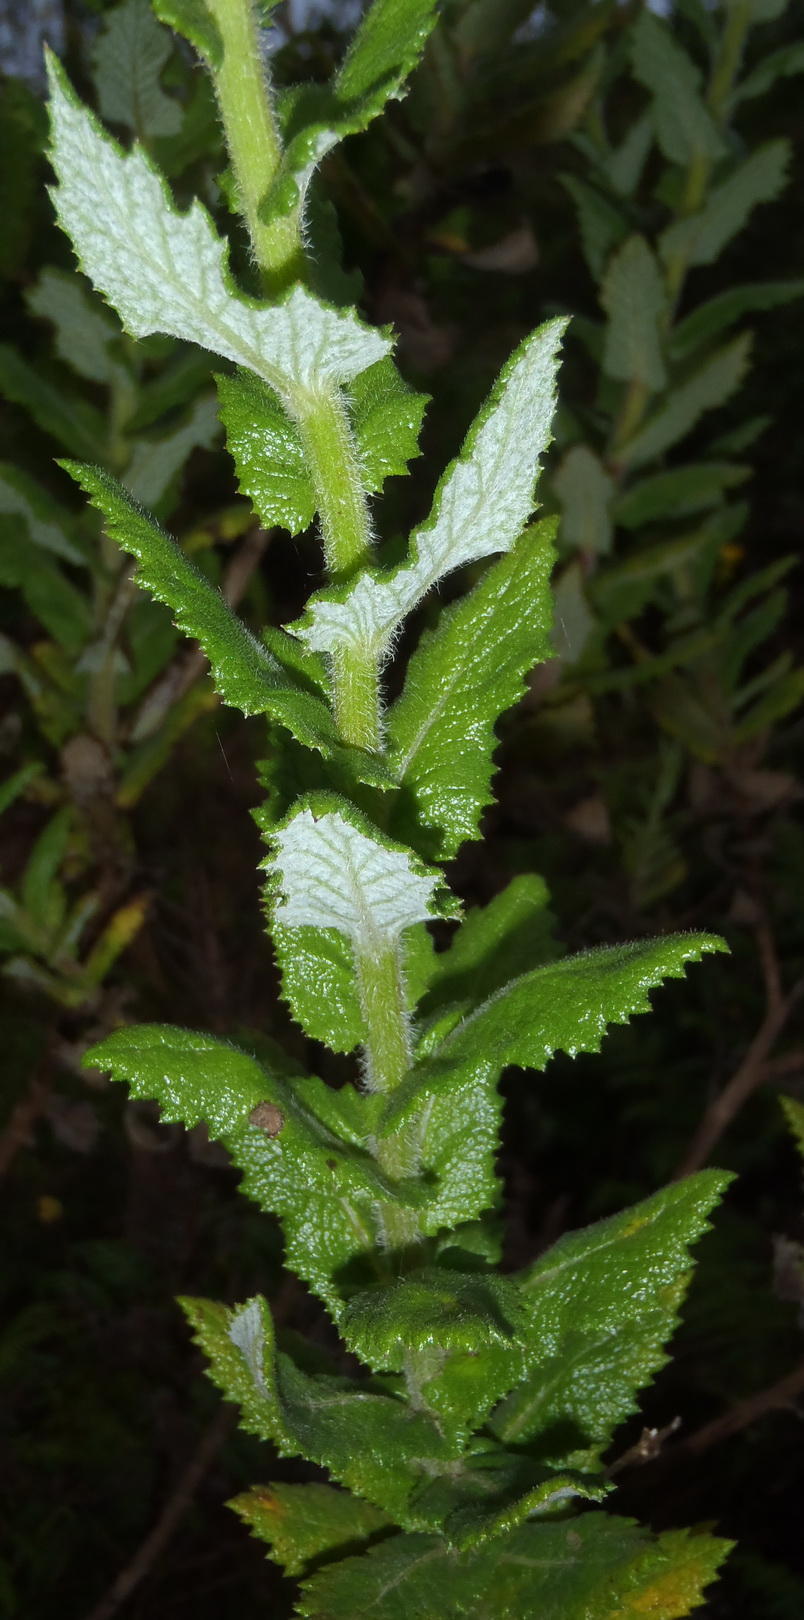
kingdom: Plantae
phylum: Tracheophyta
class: Magnoliopsida
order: Asterales
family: Asteraceae
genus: Senecio
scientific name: Senecio rigidus
